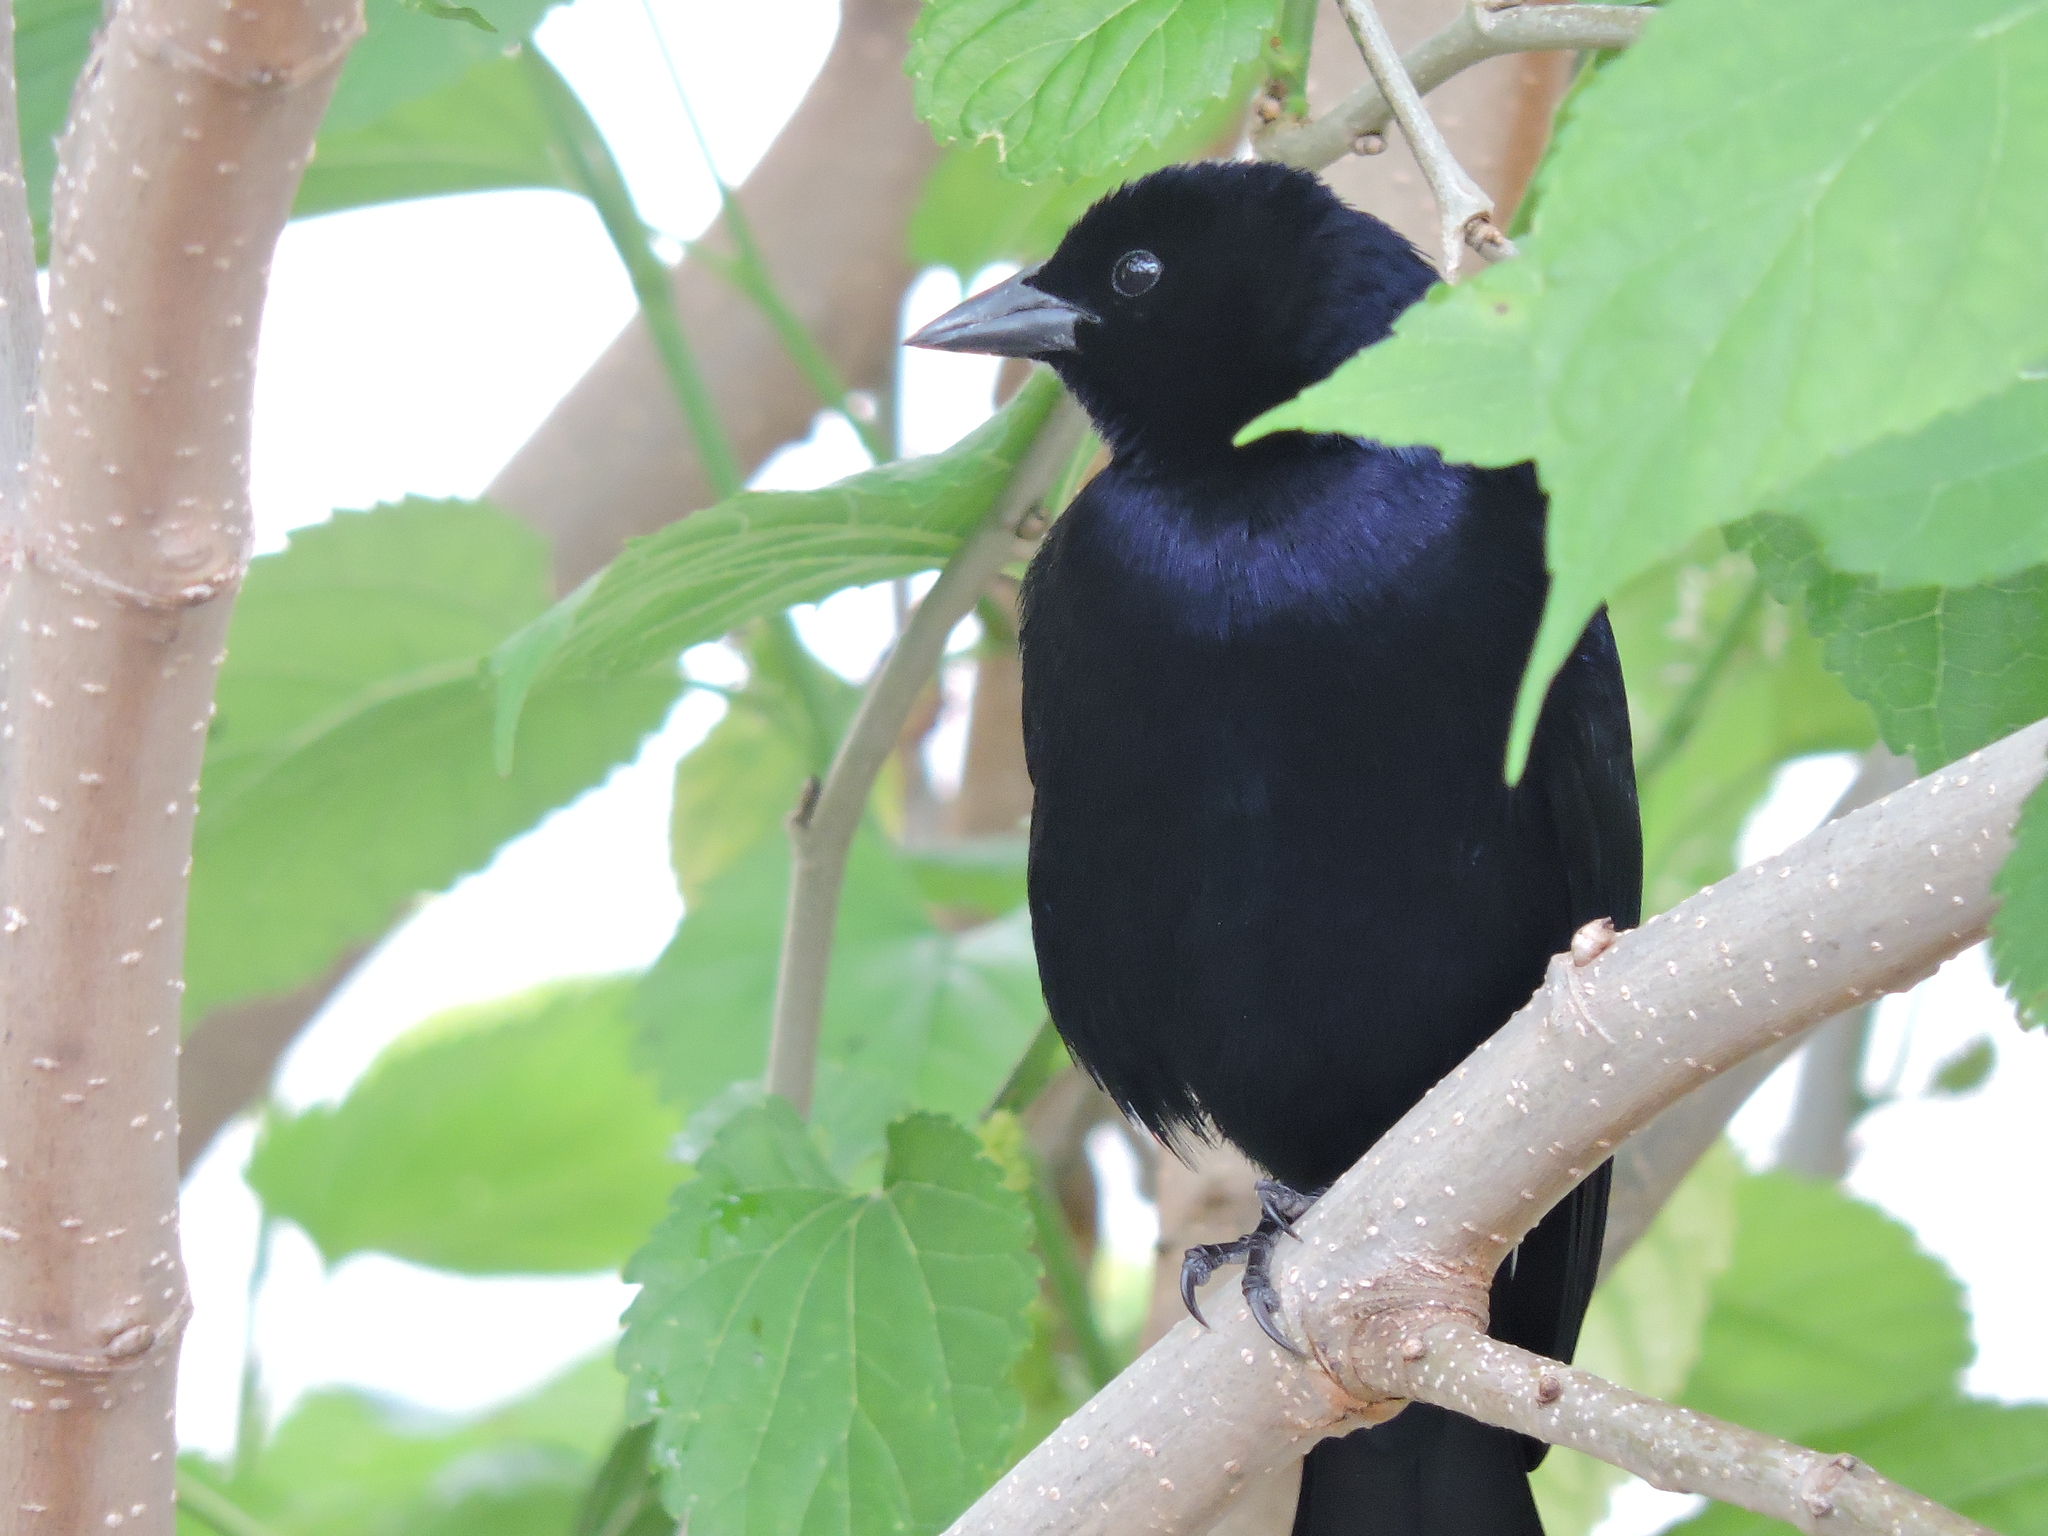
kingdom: Animalia
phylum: Chordata
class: Aves
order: Passeriformes
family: Icteridae
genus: Molothrus
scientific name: Molothrus bonariensis
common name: Shiny cowbird
